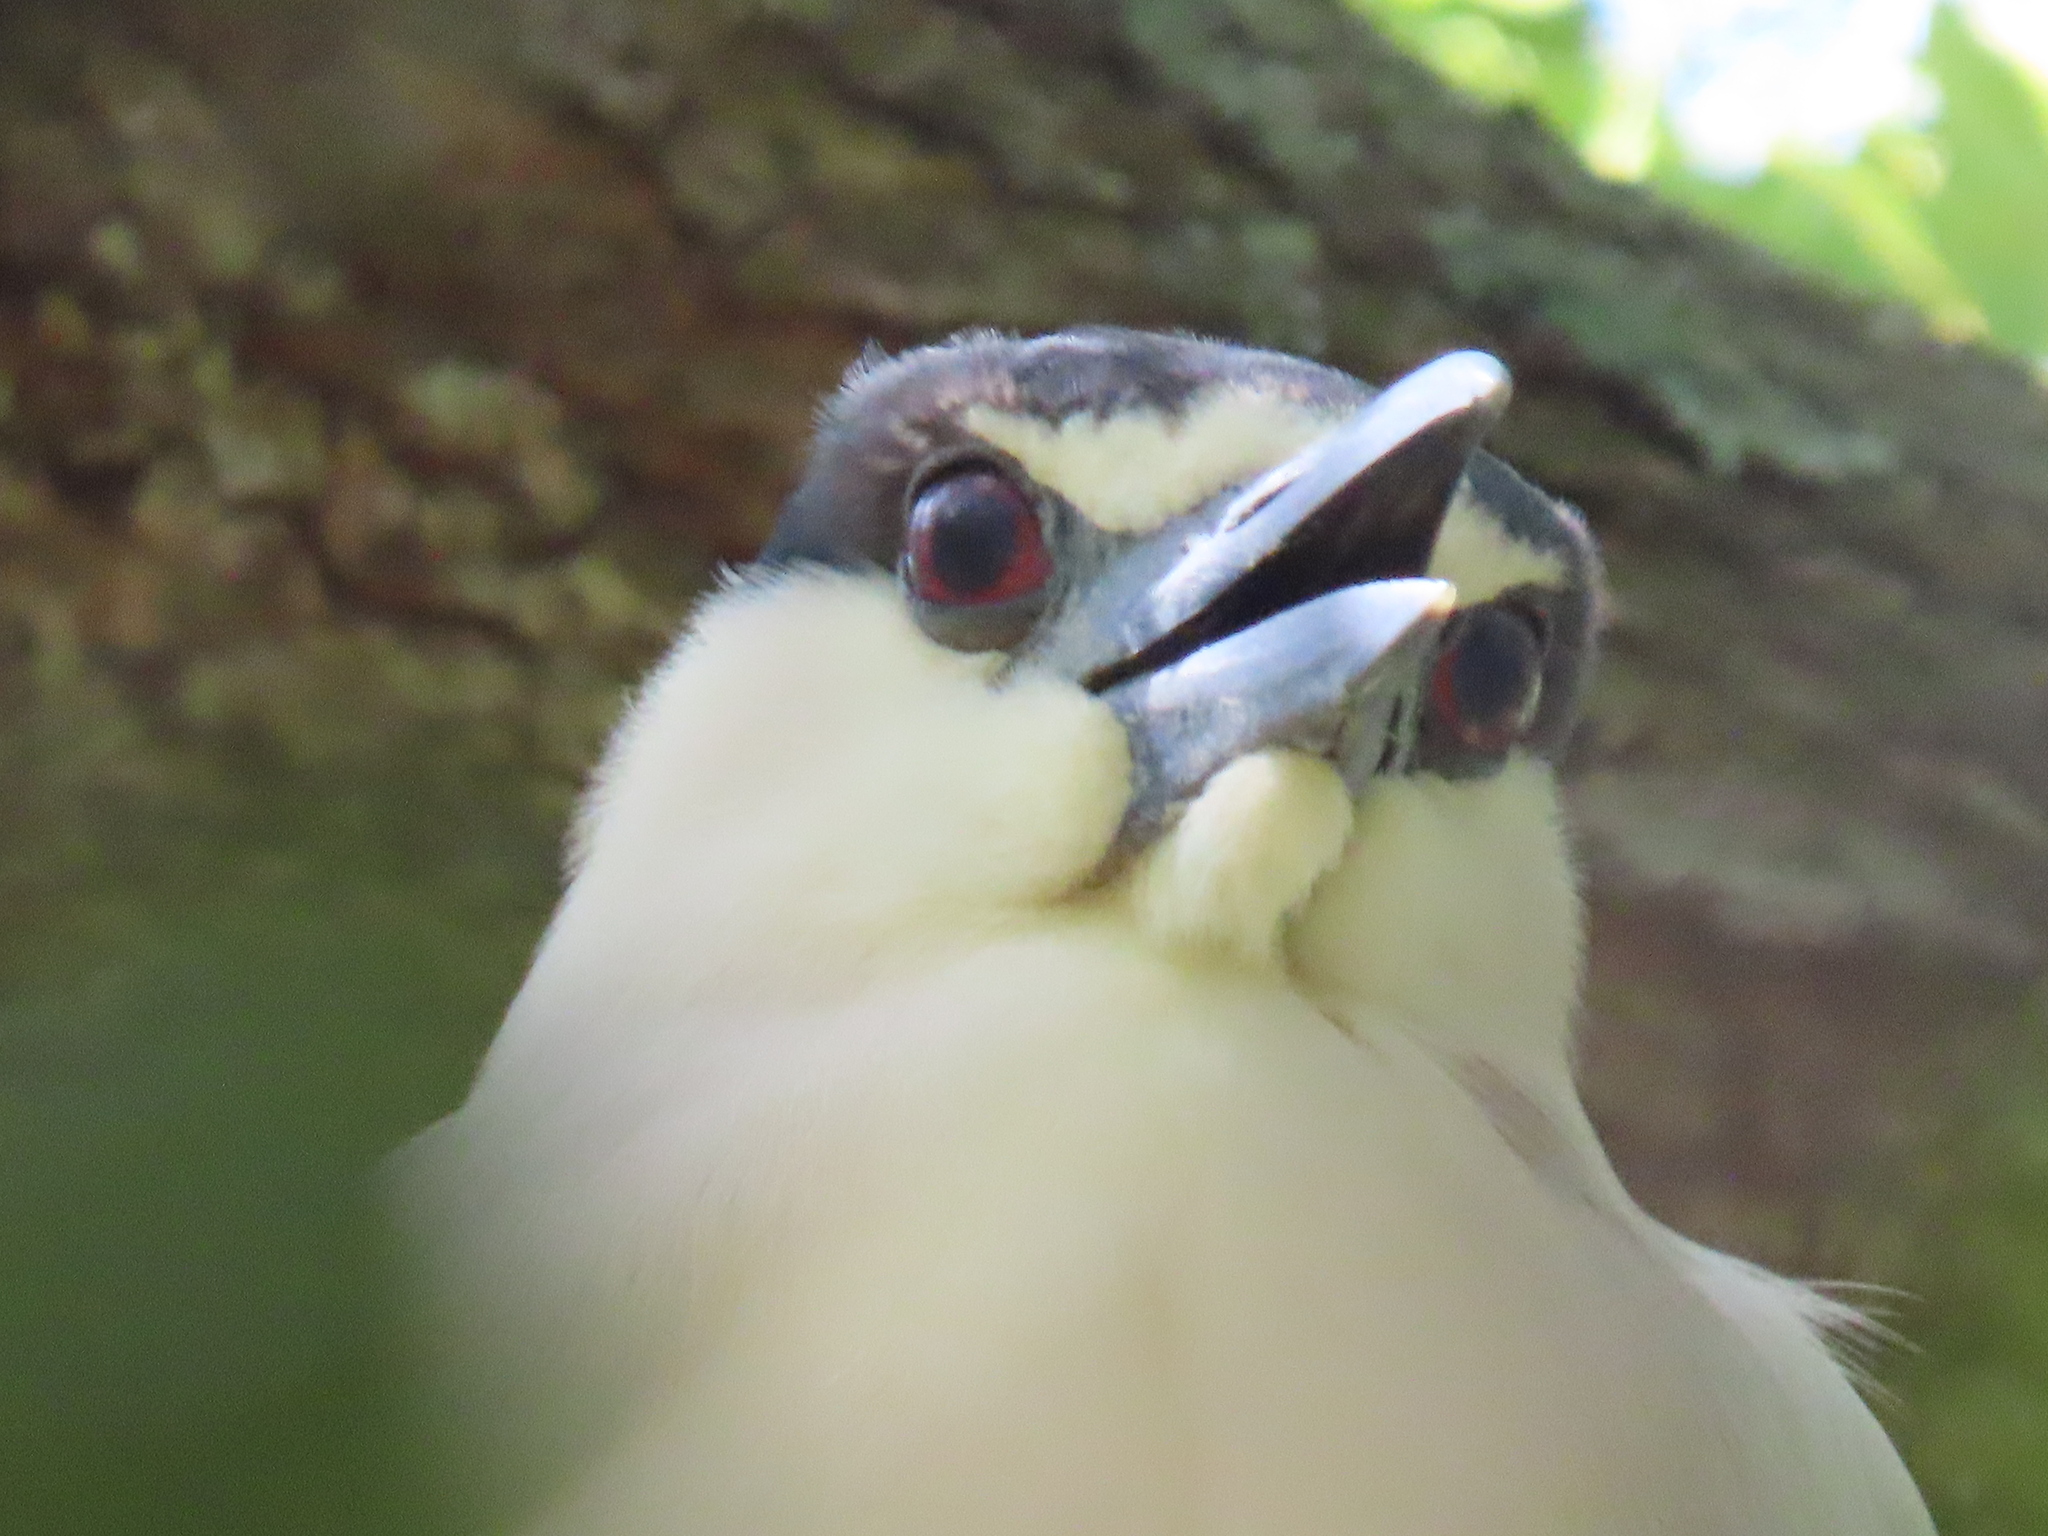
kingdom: Animalia
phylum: Chordata
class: Aves
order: Pelecaniformes
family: Ardeidae
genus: Nycticorax
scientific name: Nycticorax nycticorax
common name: Black-crowned night heron
